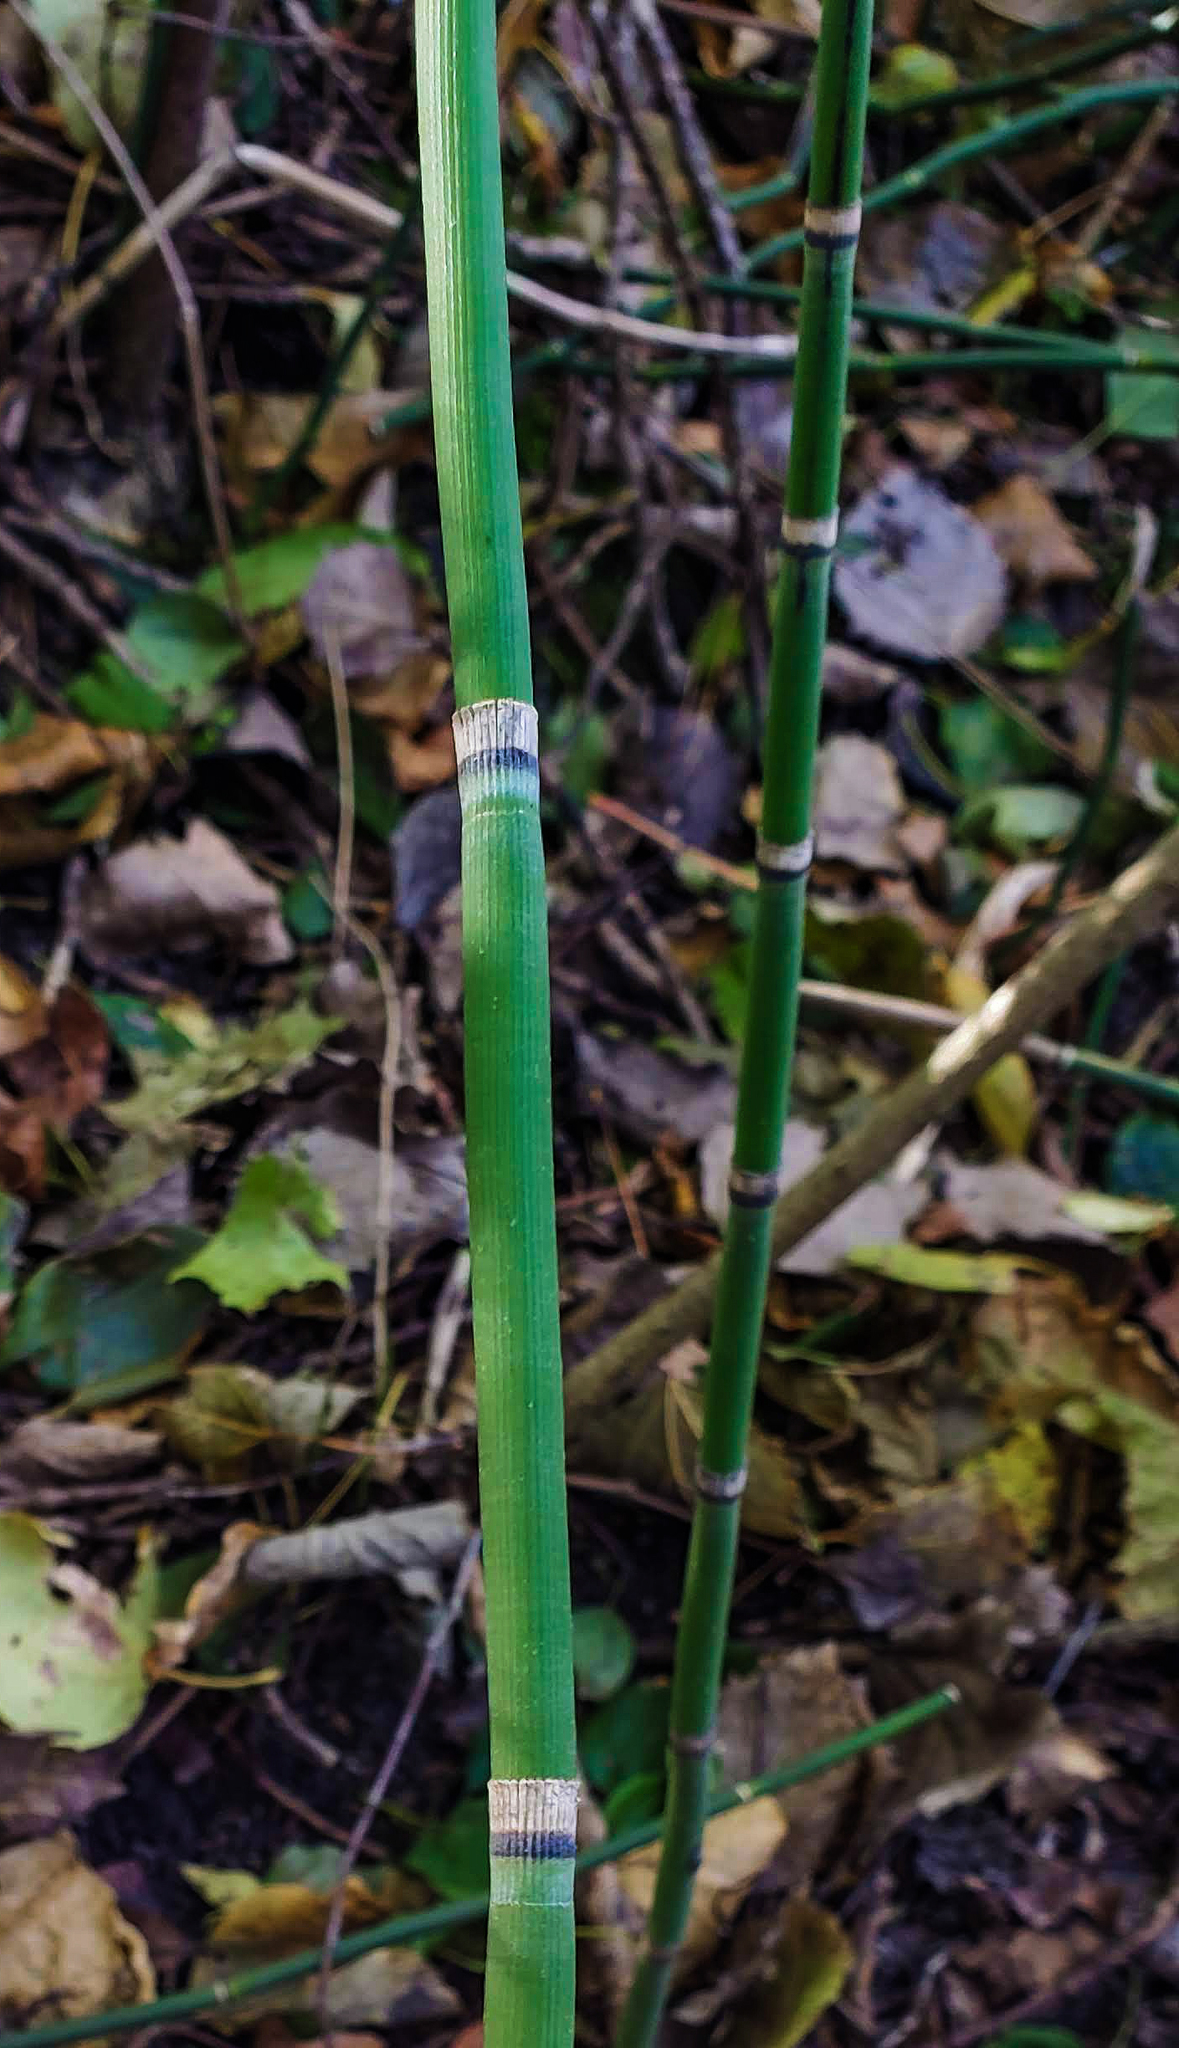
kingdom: Plantae
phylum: Tracheophyta
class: Polypodiopsida
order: Equisetales
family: Equisetaceae
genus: Equisetum
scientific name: Equisetum hyemale
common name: Rough horsetail
